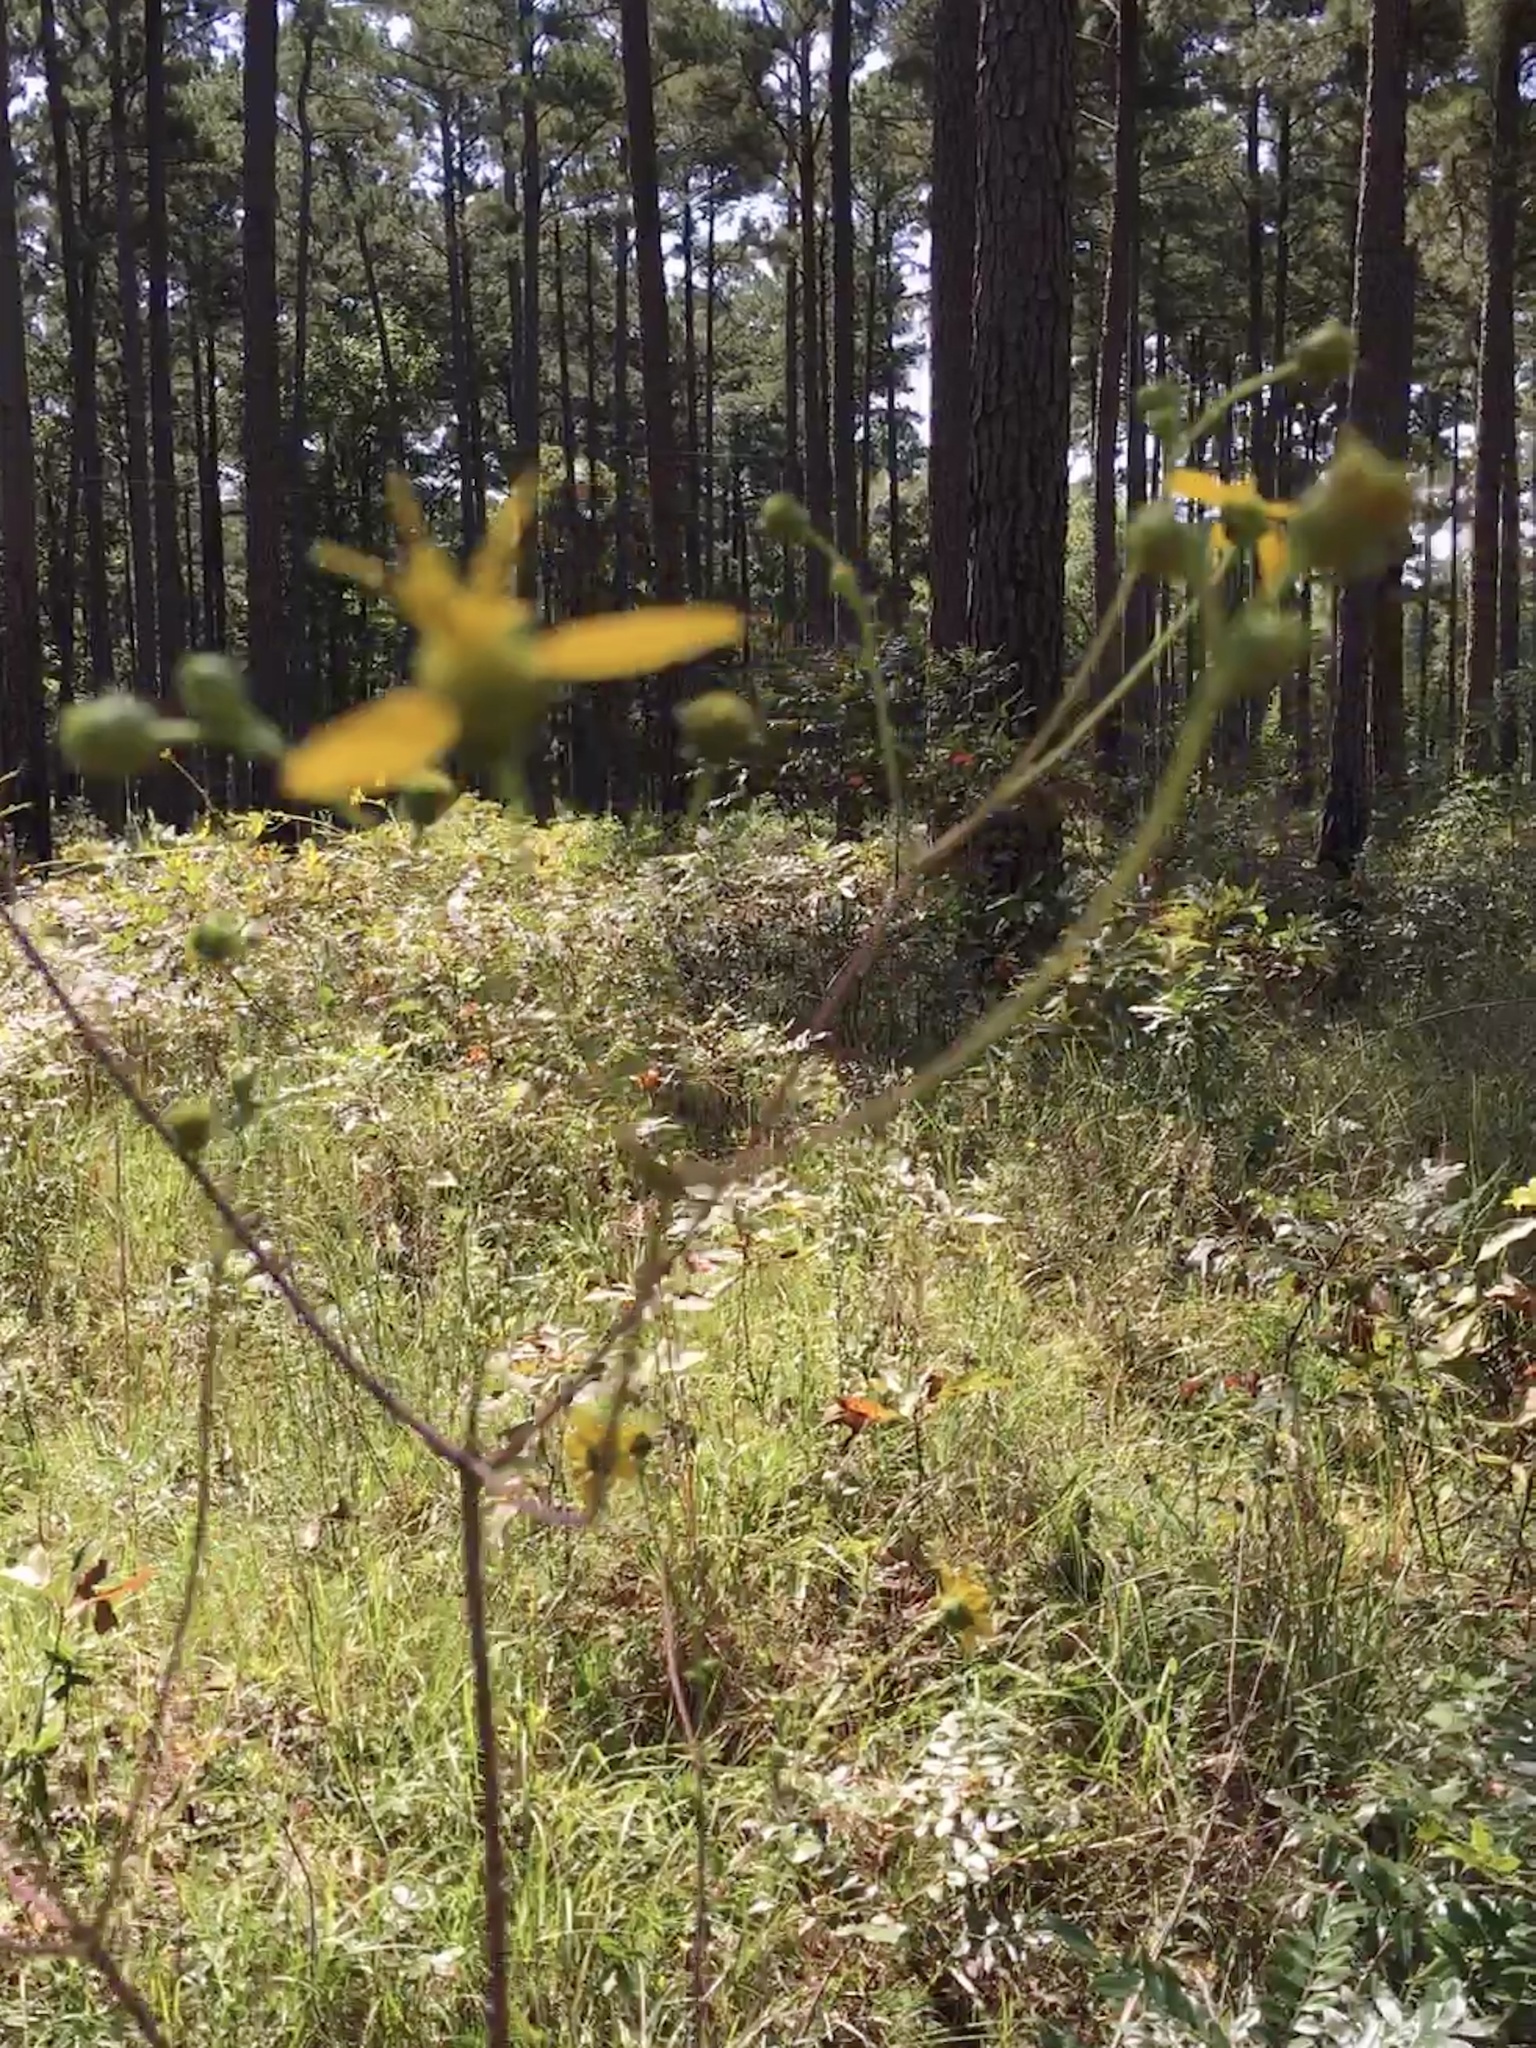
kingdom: Plantae
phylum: Tracheophyta
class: Magnoliopsida
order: Asterales
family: Asteraceae
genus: Silphium
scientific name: Silphium compositum
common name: Lesser basal-leaf rosinweed
